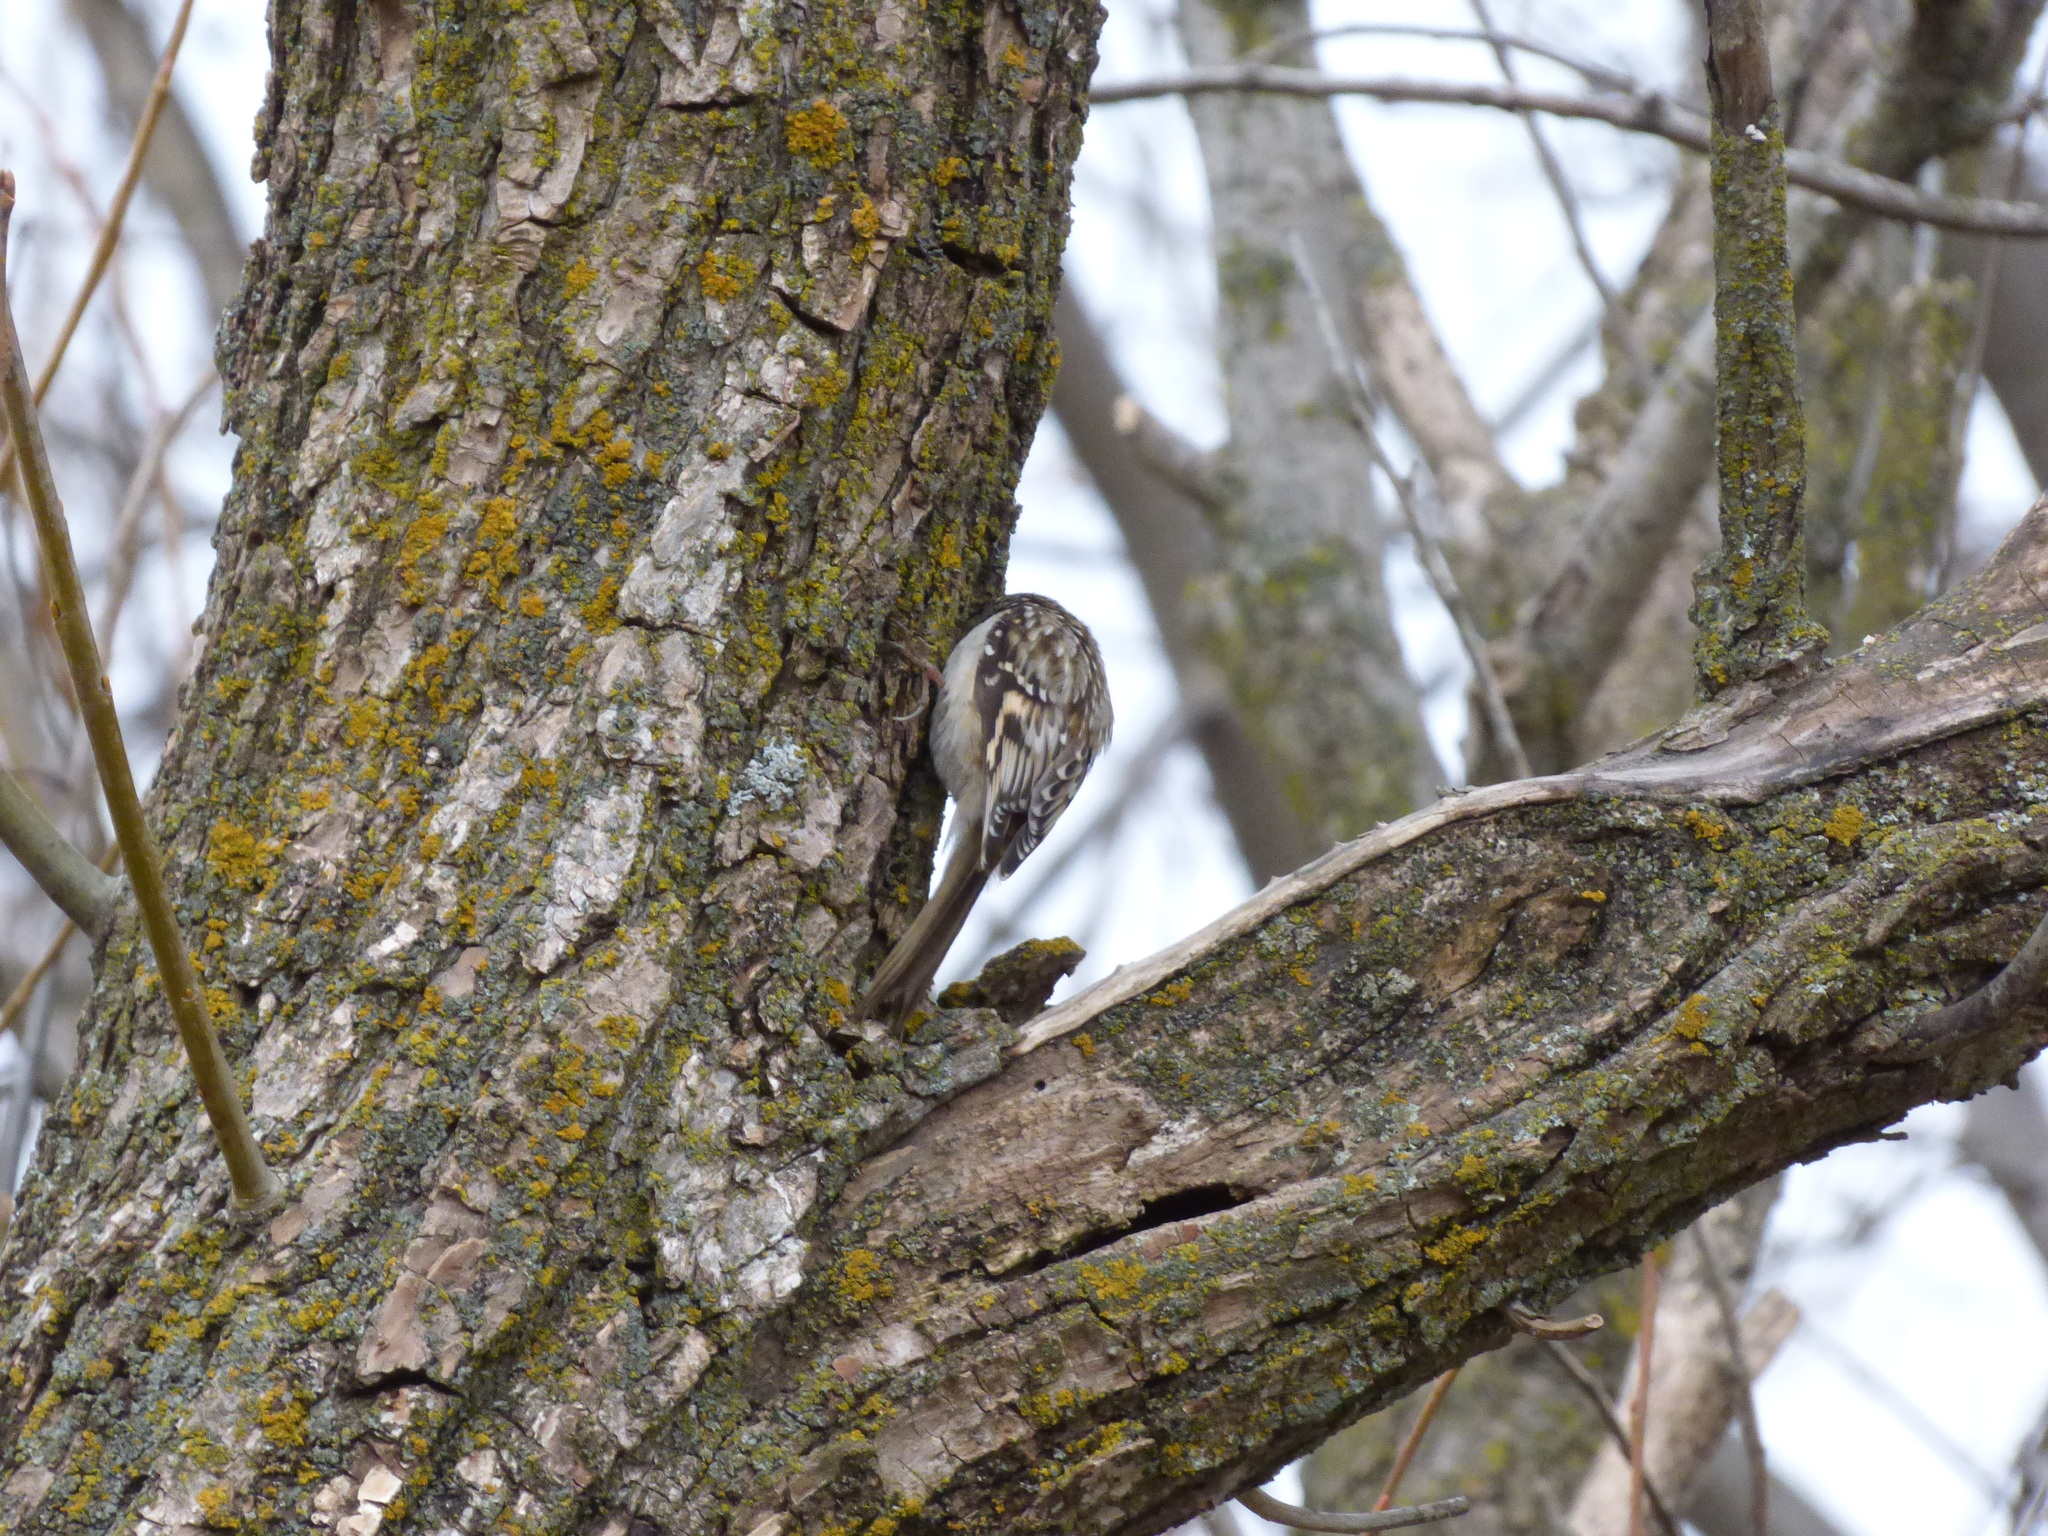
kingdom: Animalia
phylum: Chordata
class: Aves
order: Passeriformes
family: Certhiidae
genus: Certhia
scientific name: Certhia americana
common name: Brown creeper
